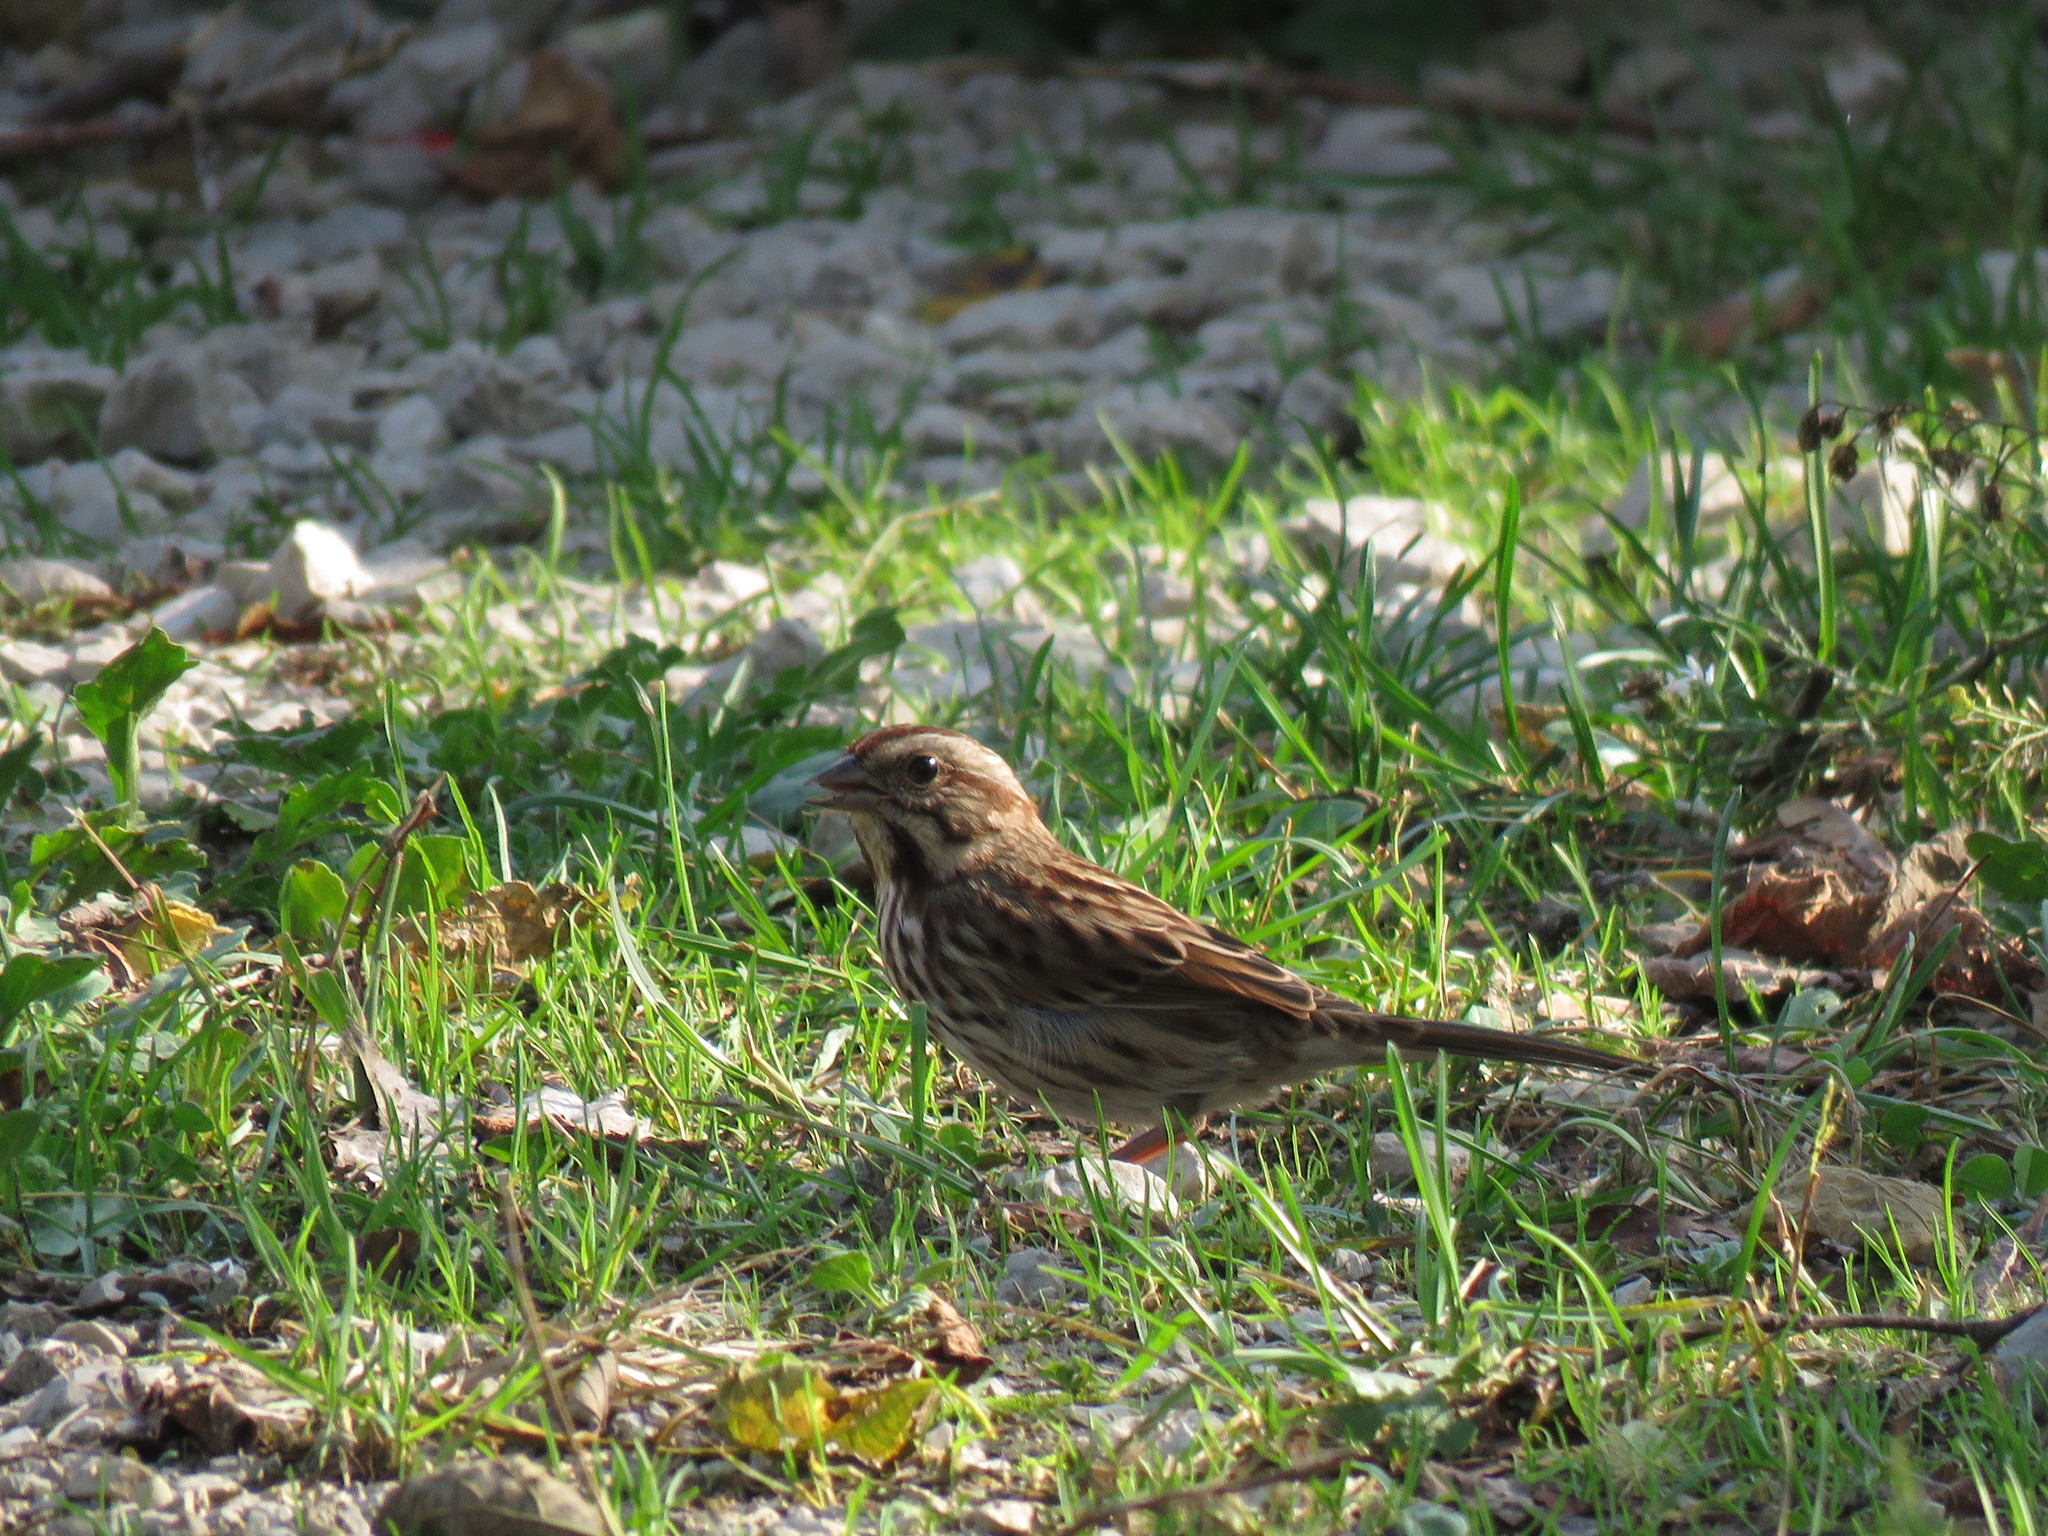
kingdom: Animalia
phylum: Chordata
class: Aves
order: Passeriformes
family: Passerellidae
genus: Melospiza
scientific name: Melospiza melodia
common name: Song sparrow
